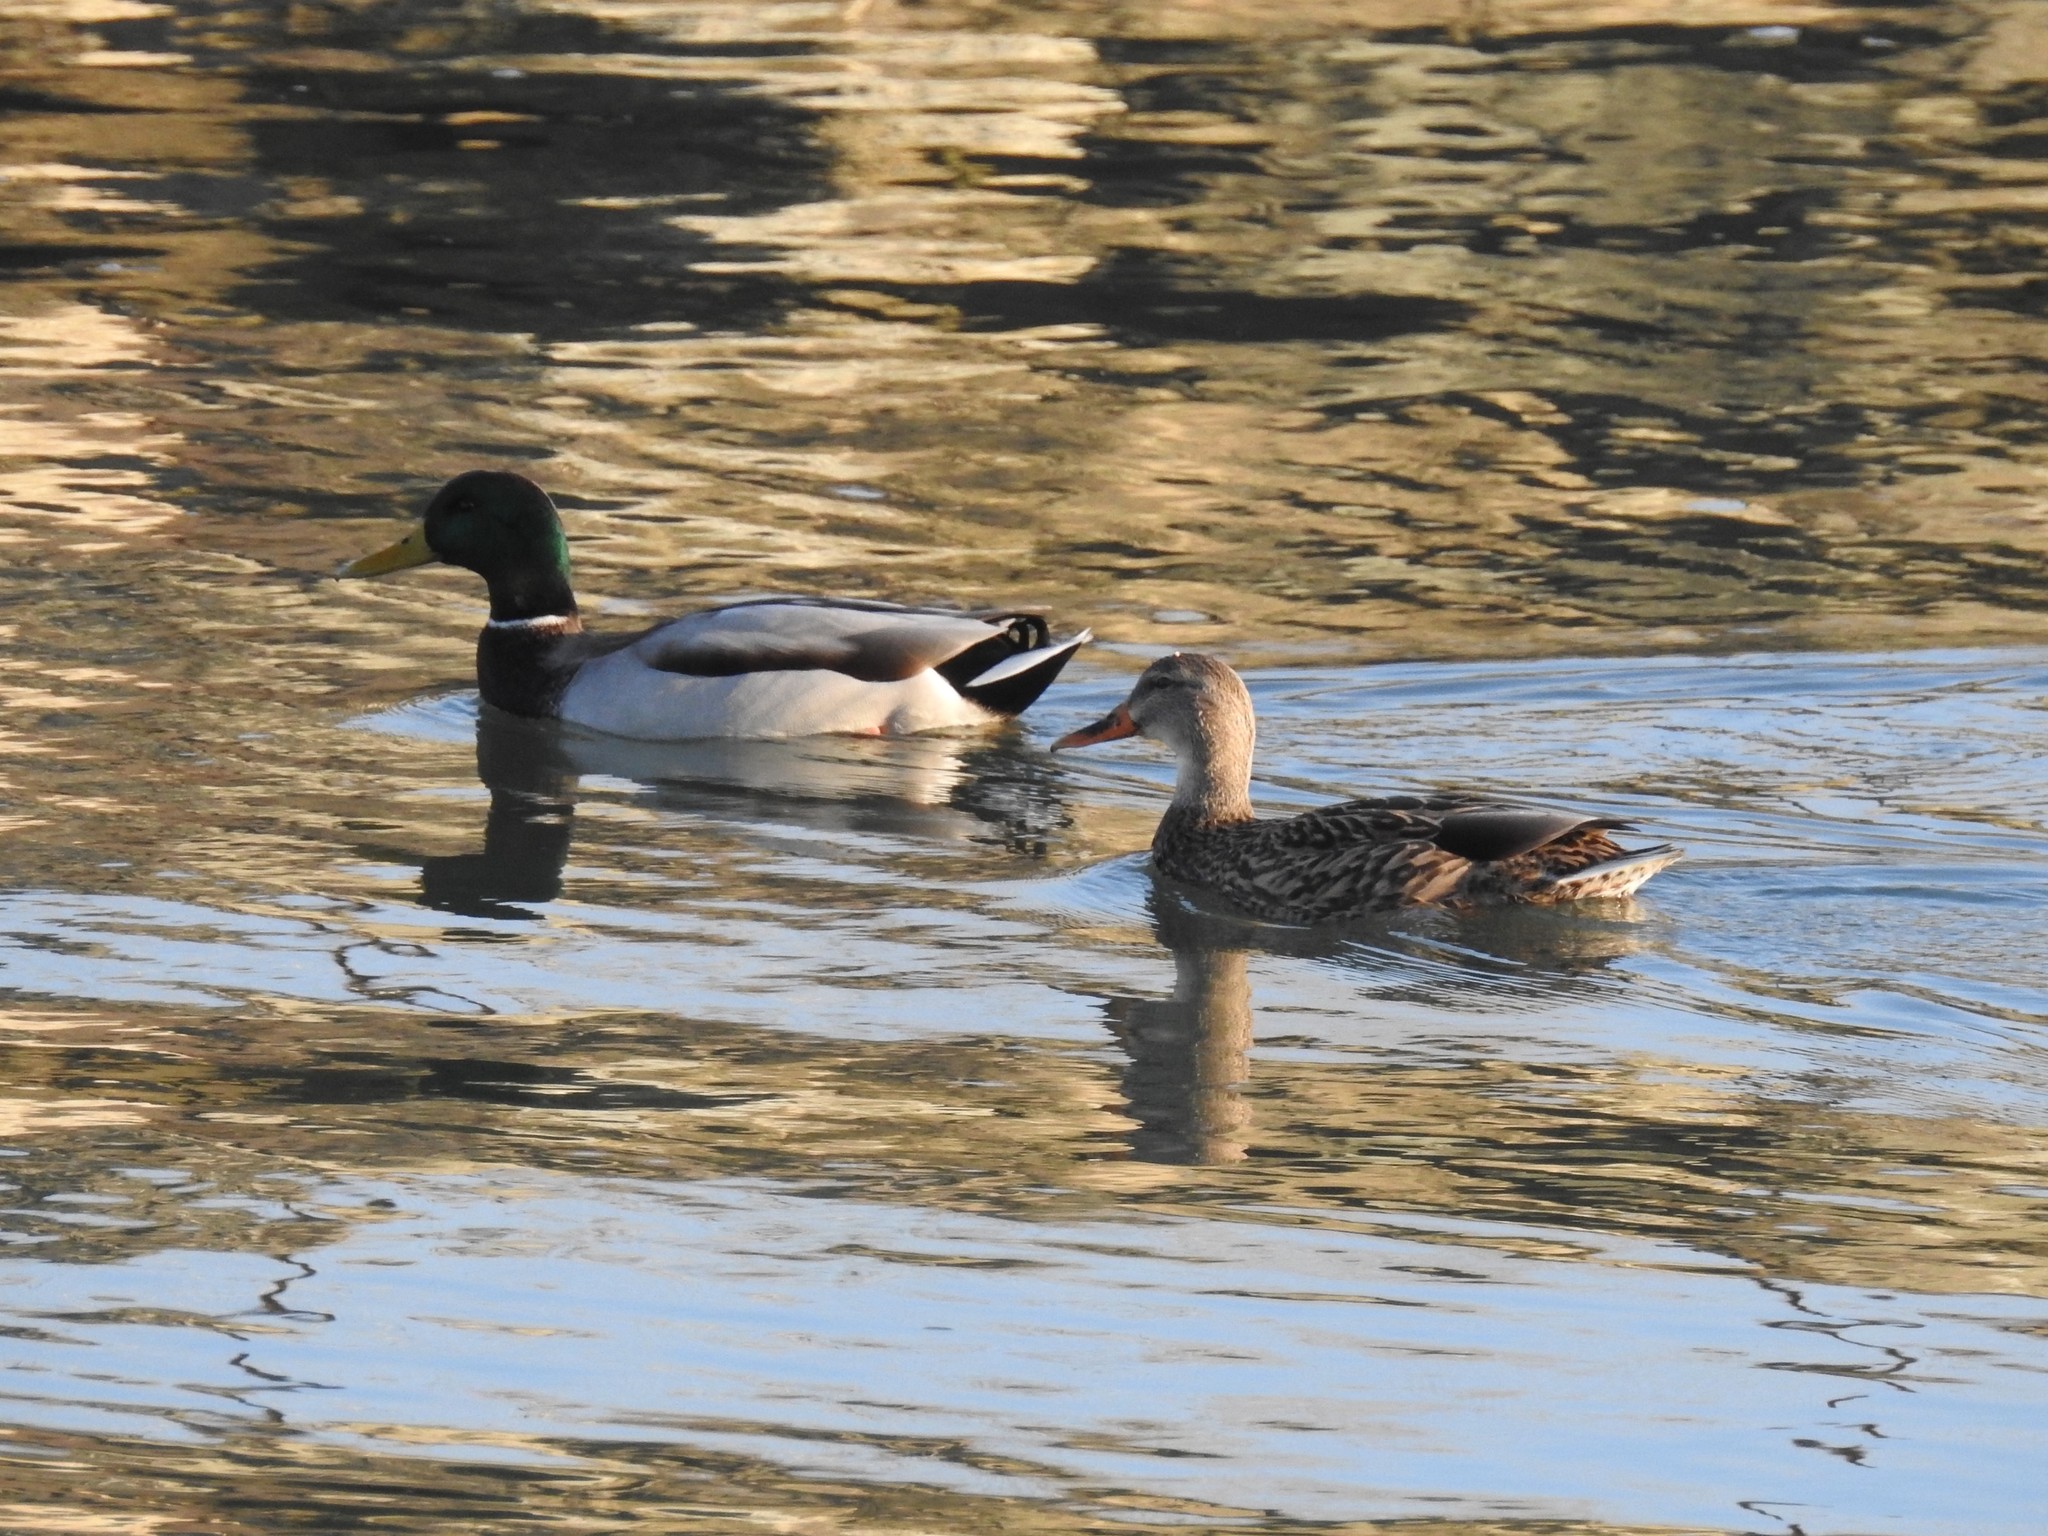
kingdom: Animalia
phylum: Chordata
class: Aves
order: Anseriformes
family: Anatidae
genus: Anas
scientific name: Anas platyrhynchos
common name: Mallard
